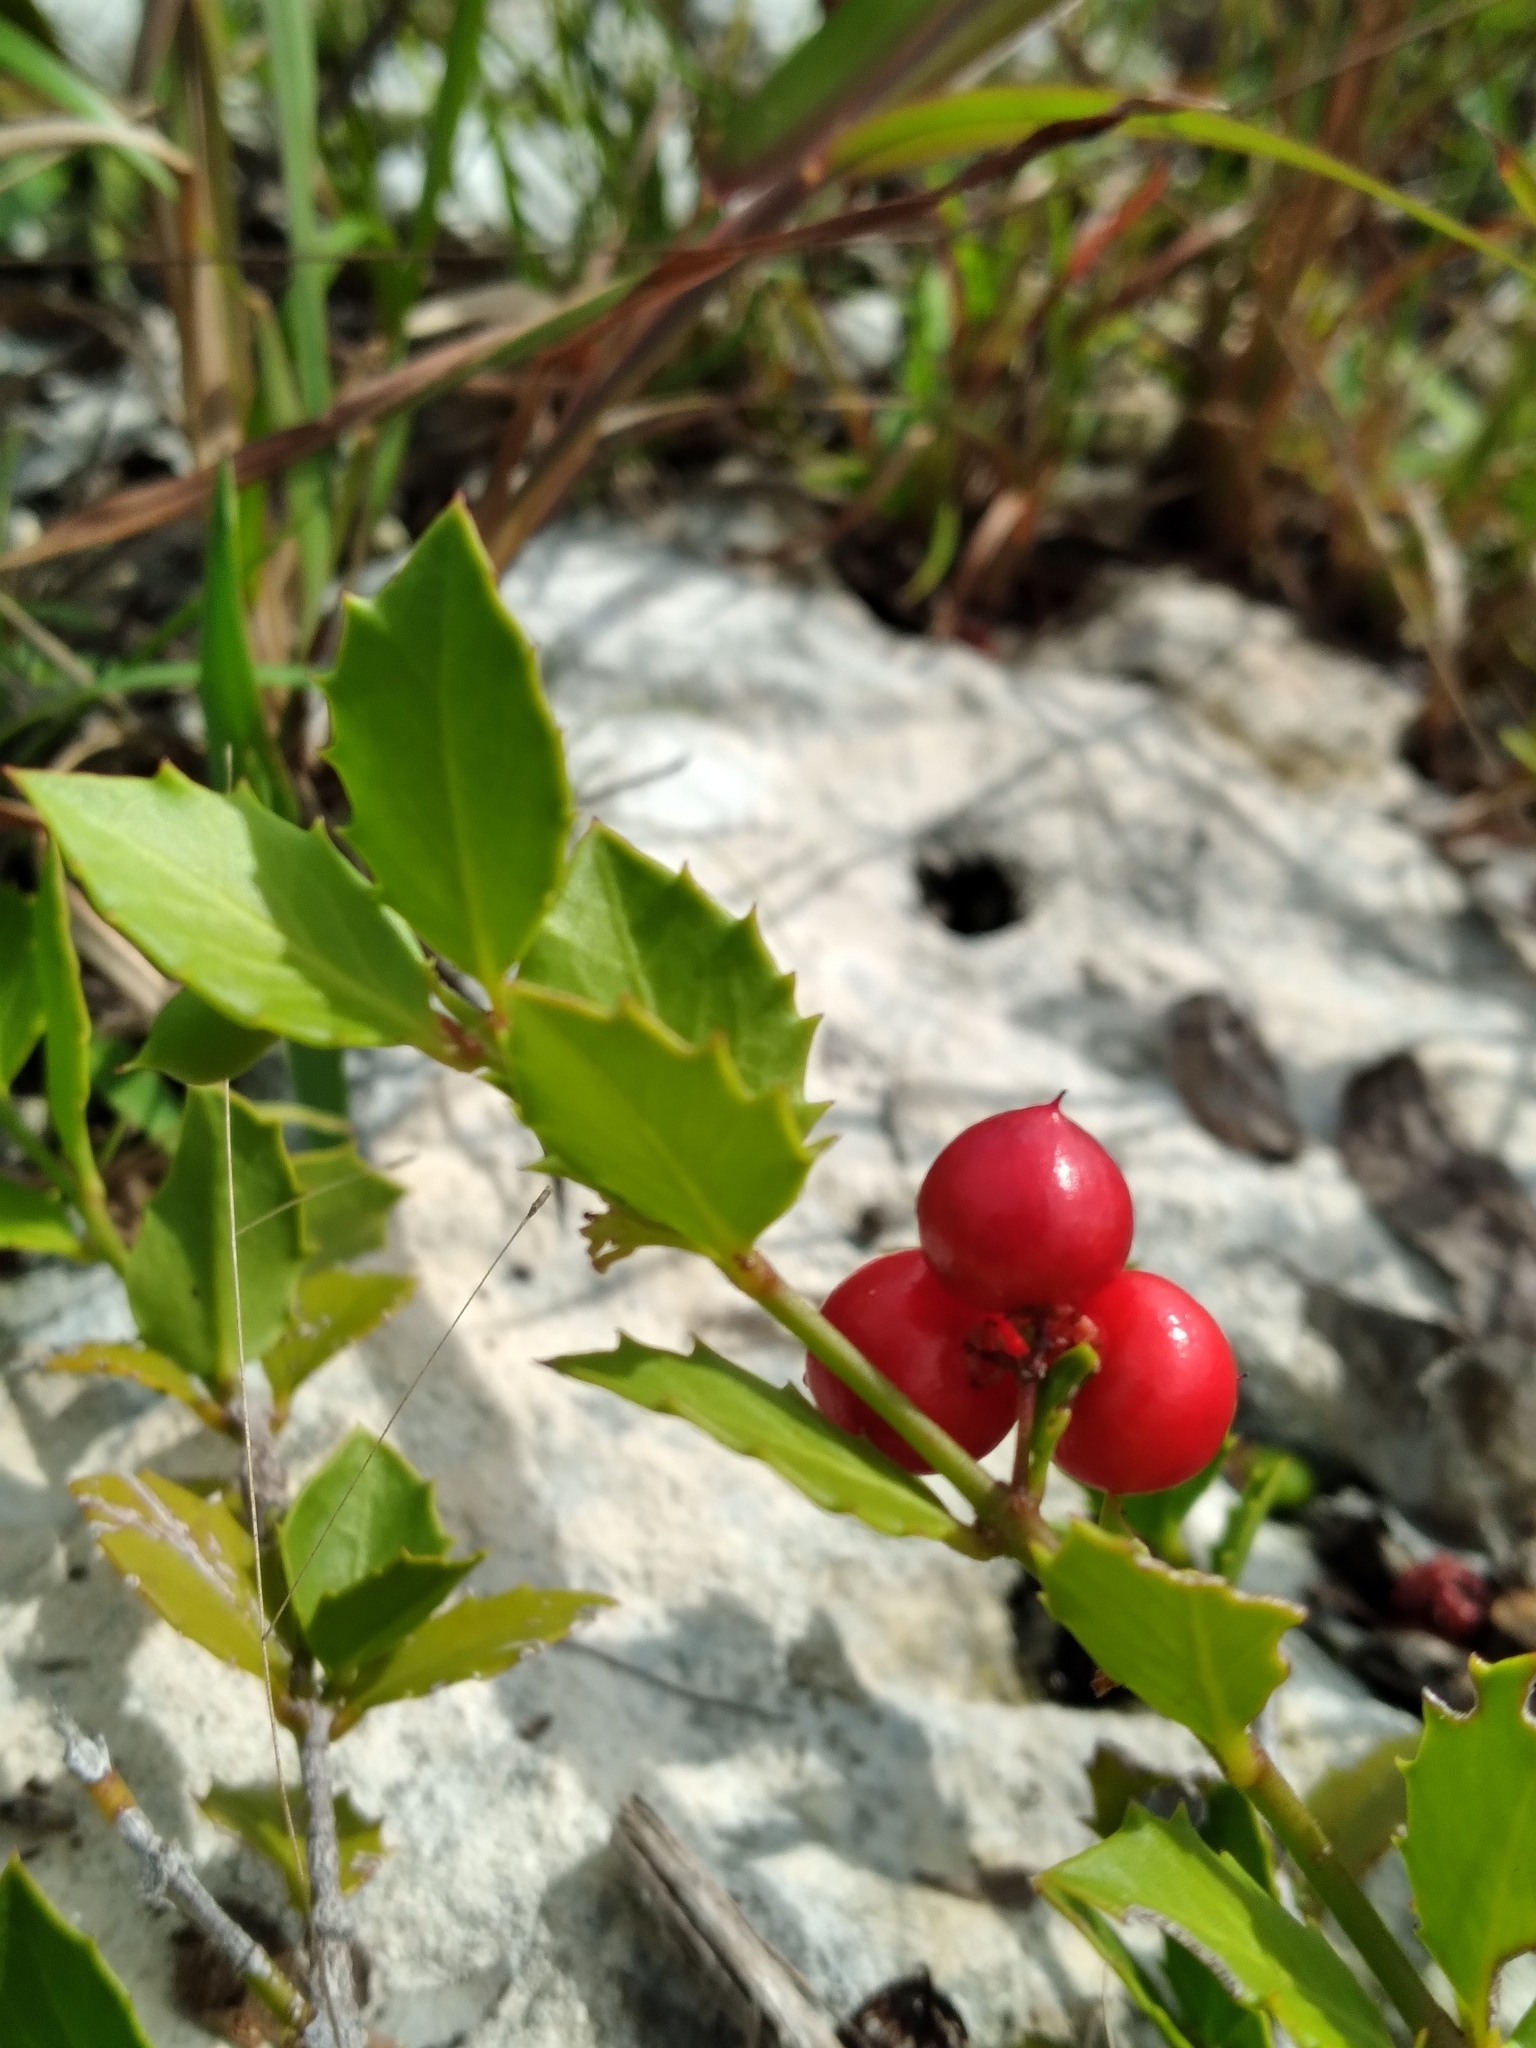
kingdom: Plantae
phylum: Tracheophyta
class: Magnoliopsida
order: Celastrales
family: Celastraceae
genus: Crossopetalum
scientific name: Crossopetalum ilicifolium
